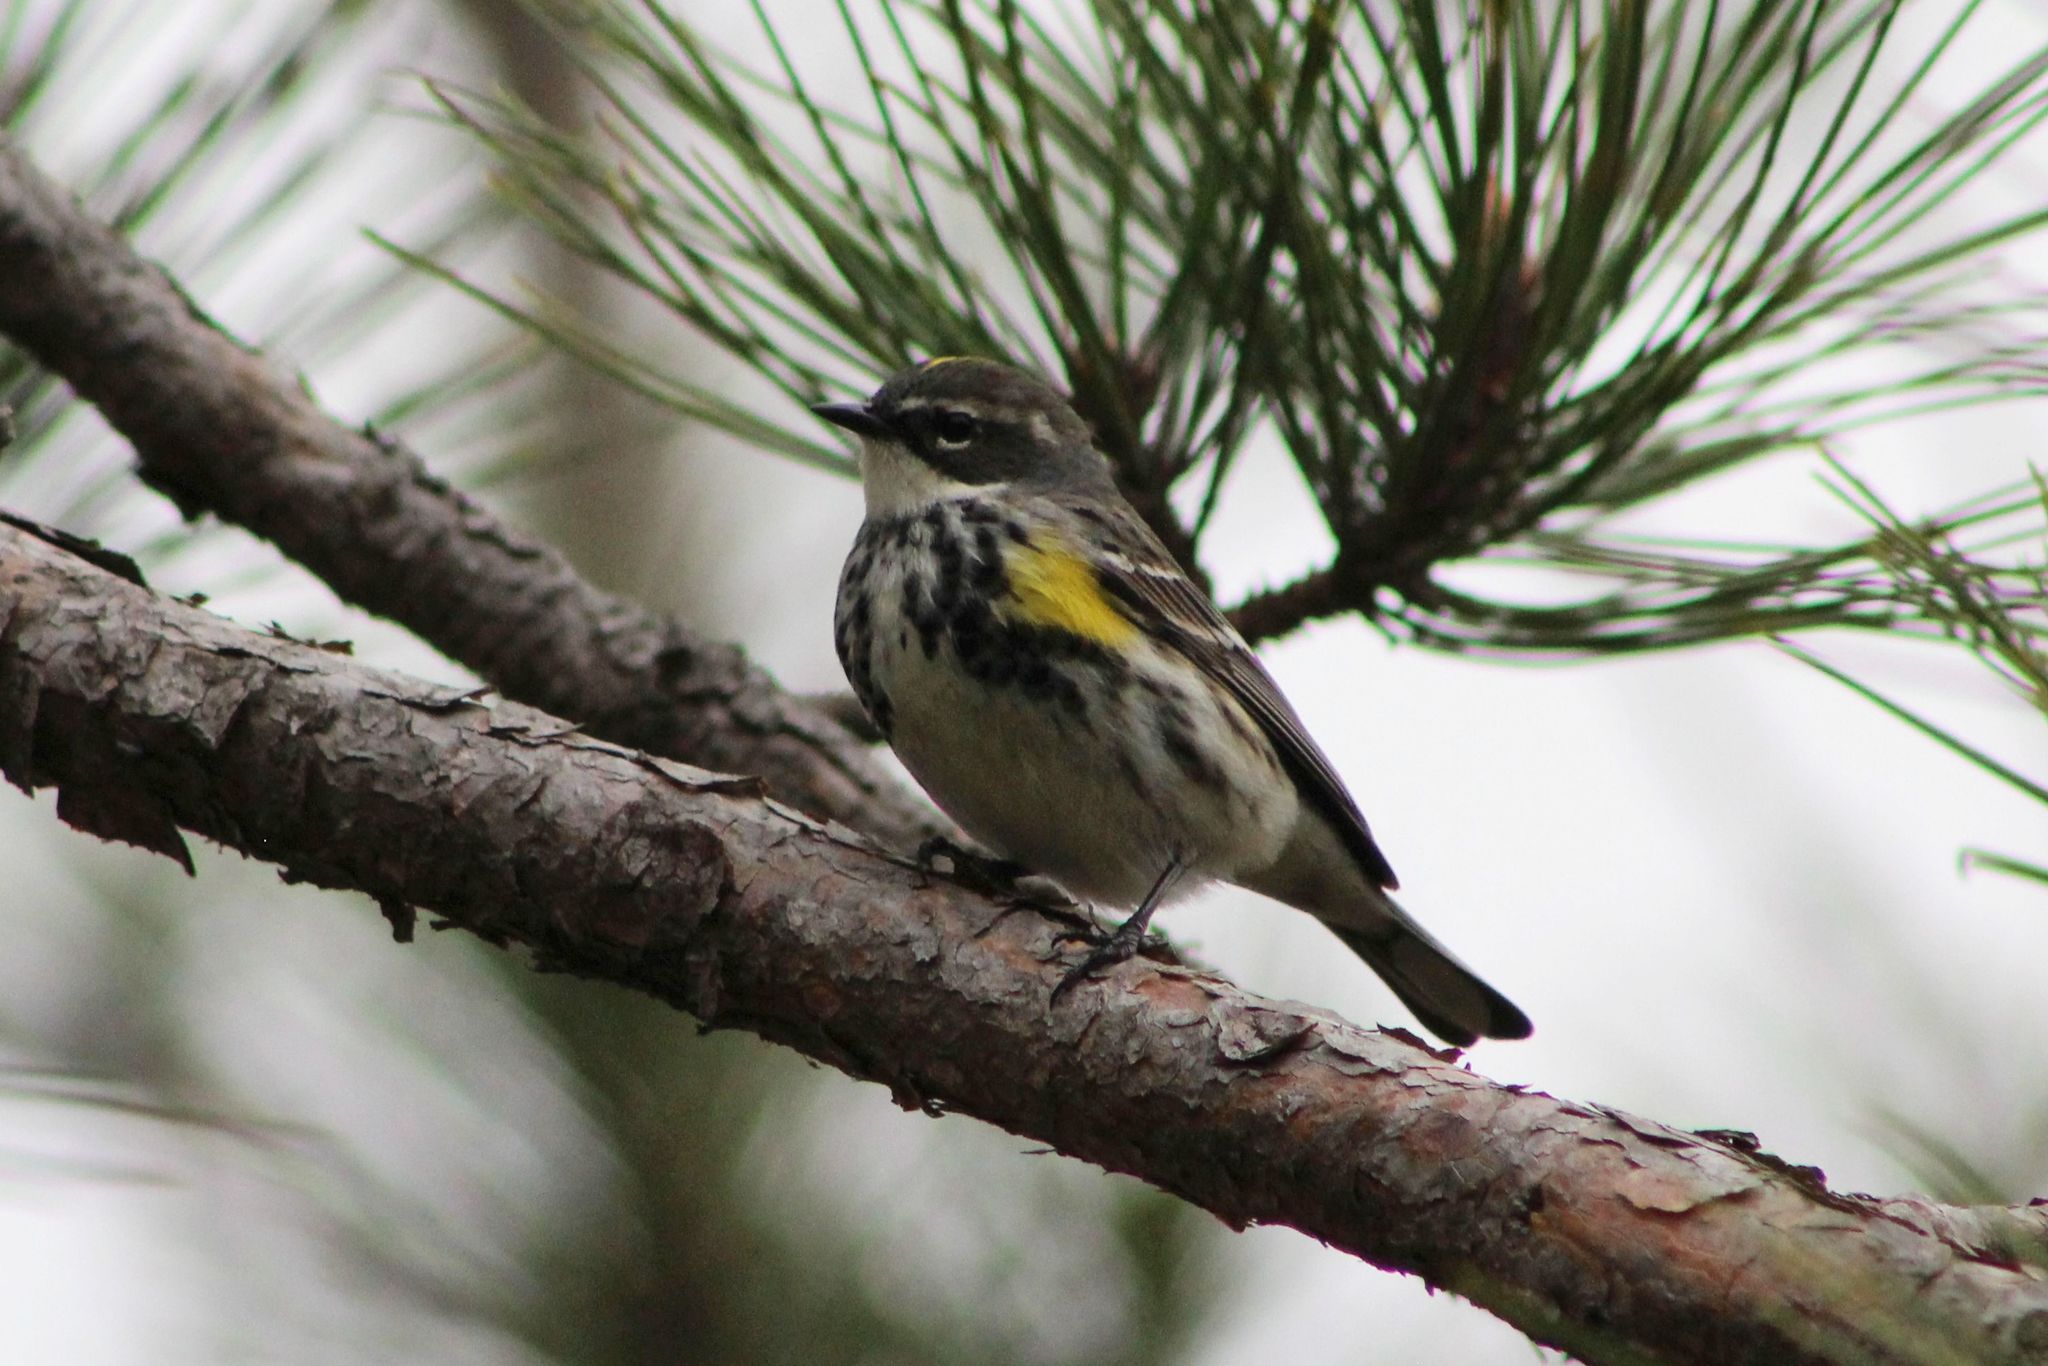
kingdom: Animalia
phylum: Chordata
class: Aves
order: Passeriformes
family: Parulidae
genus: Setophaga
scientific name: Setophaga coronata
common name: Myrtle warbler
